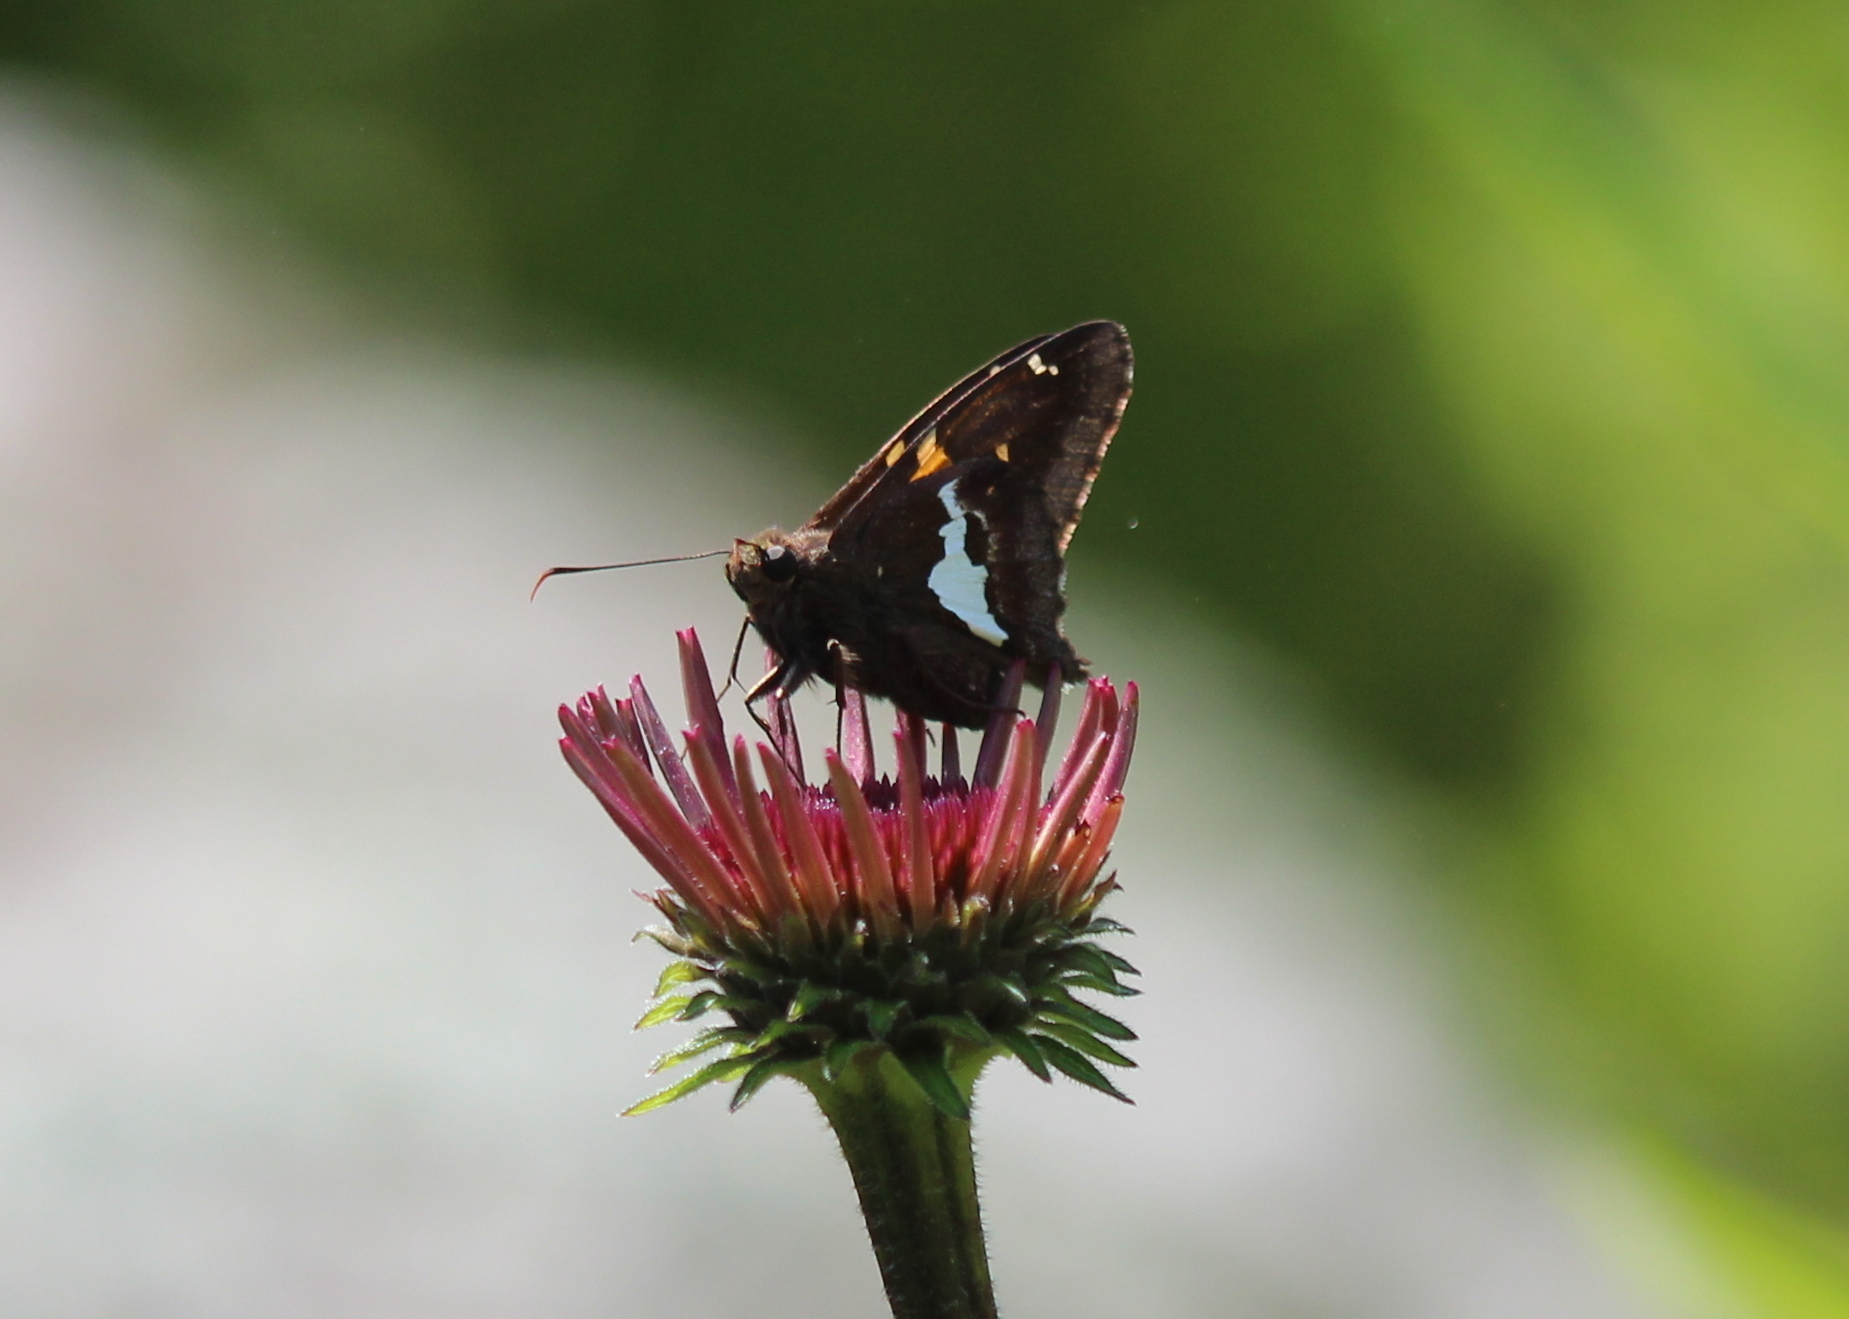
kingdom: Animalia
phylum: Arthropoda
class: Insecta
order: Lepidoptera
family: Hesperiidae
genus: Epargyreus
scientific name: Epargyreus clarus
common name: Silver-spotted skipper
